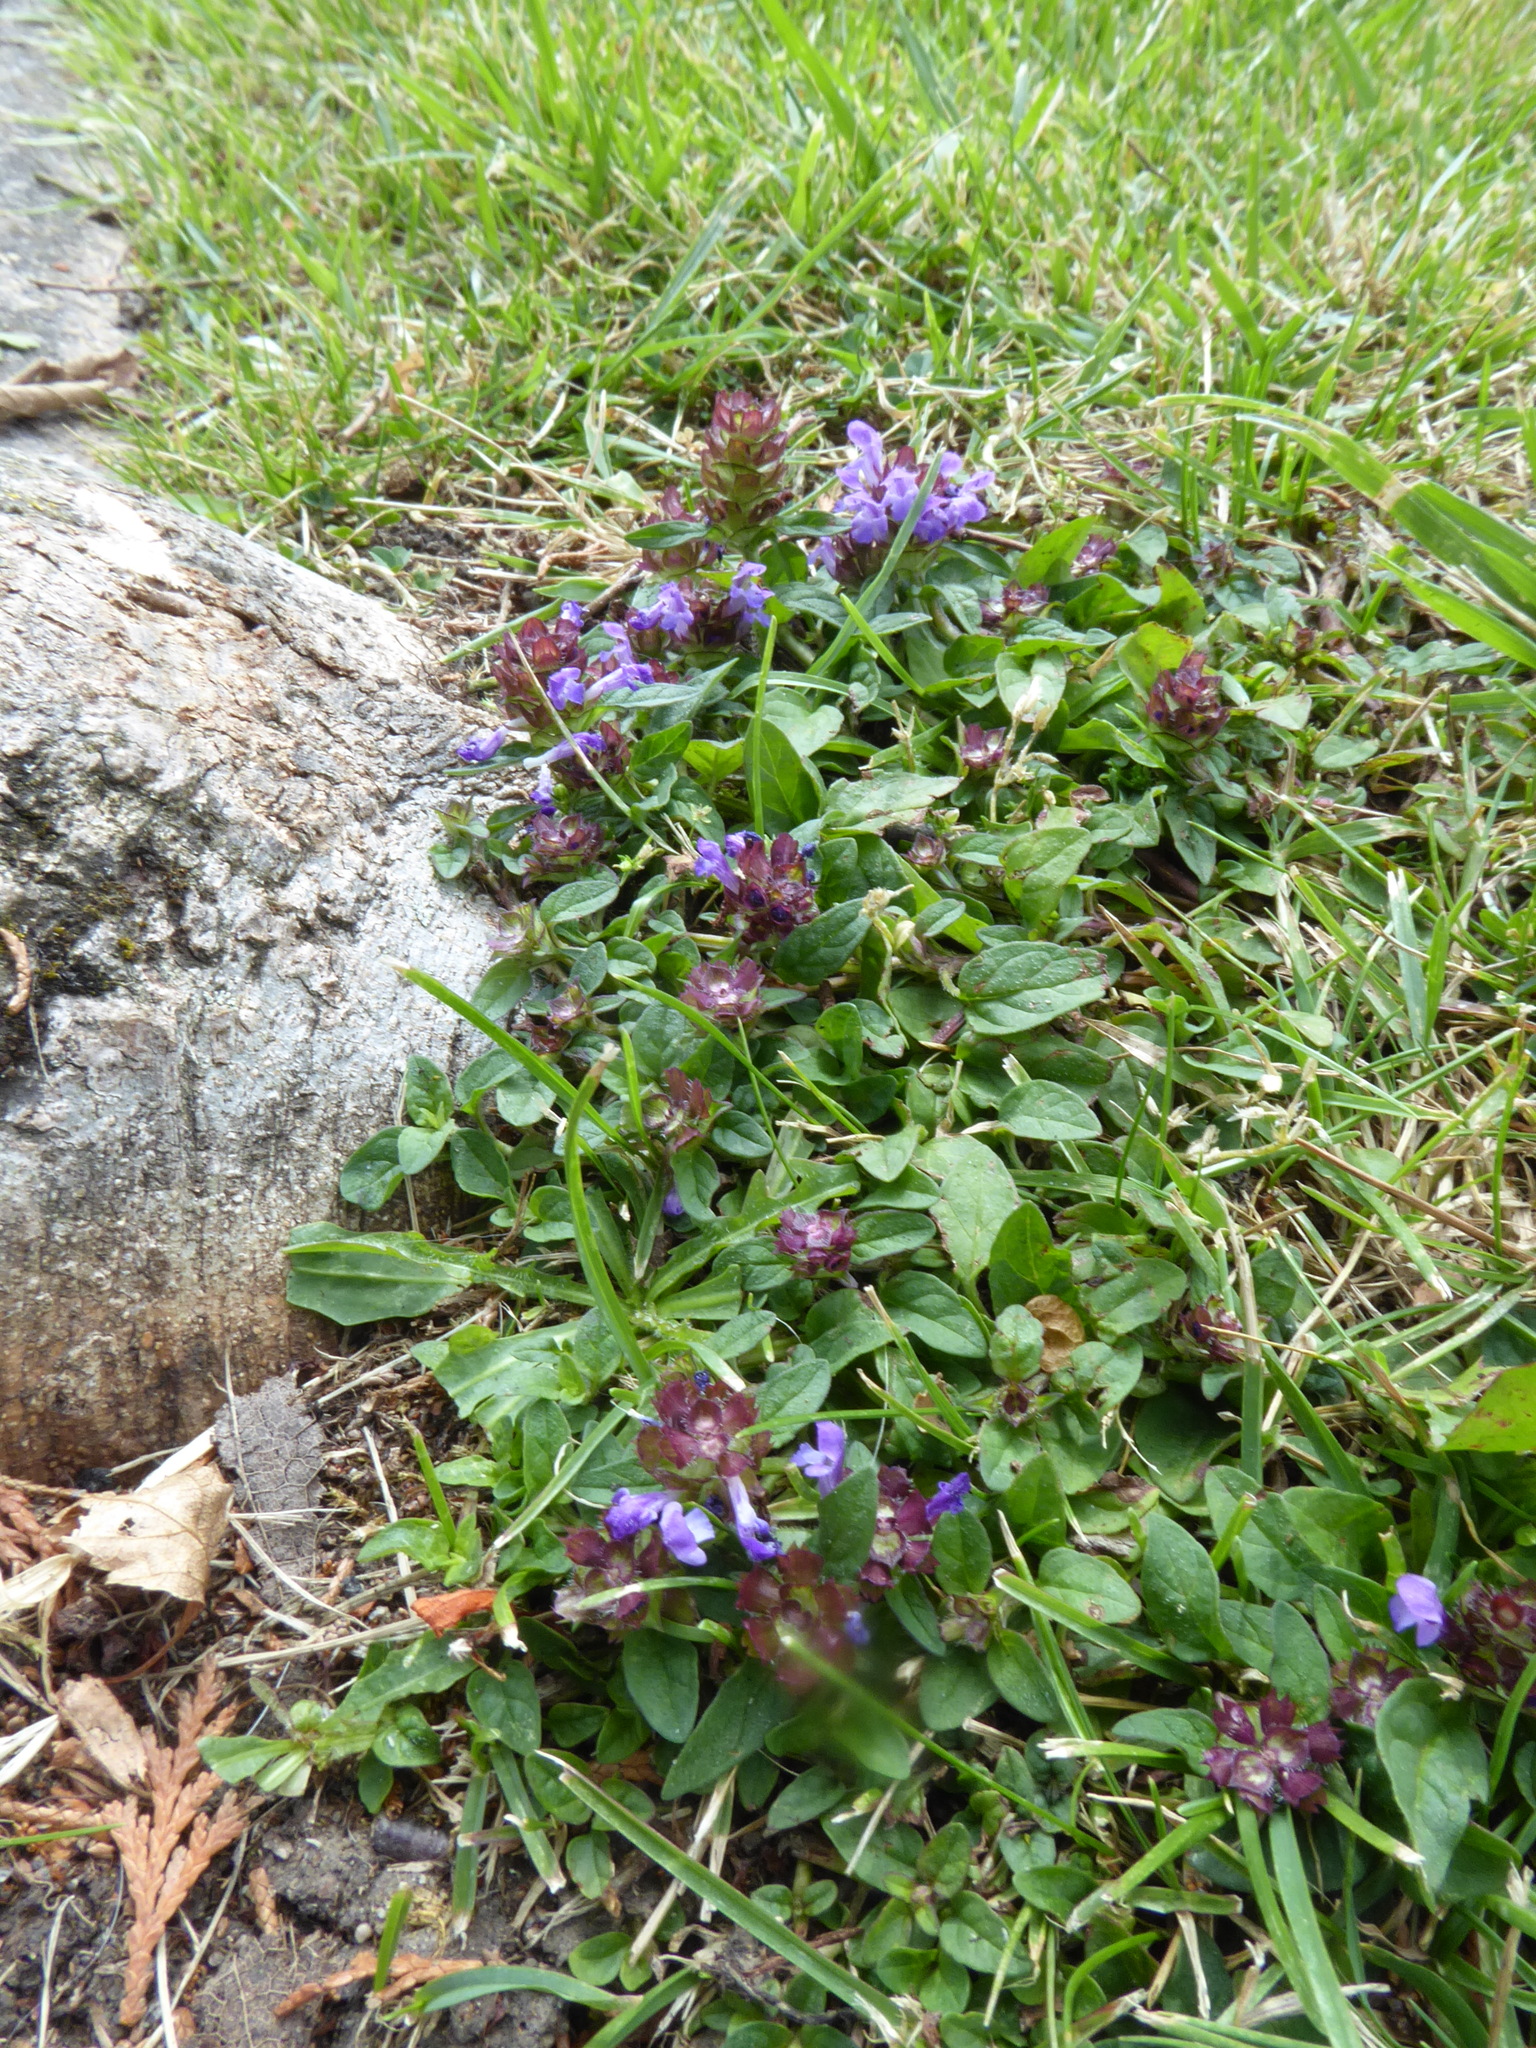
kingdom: Plantae
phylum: Tracheophyta
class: Magnoliopsida
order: Lamiales
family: Lamiaceae
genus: Prunella
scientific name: Prunella vulgaris
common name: Heal-all
